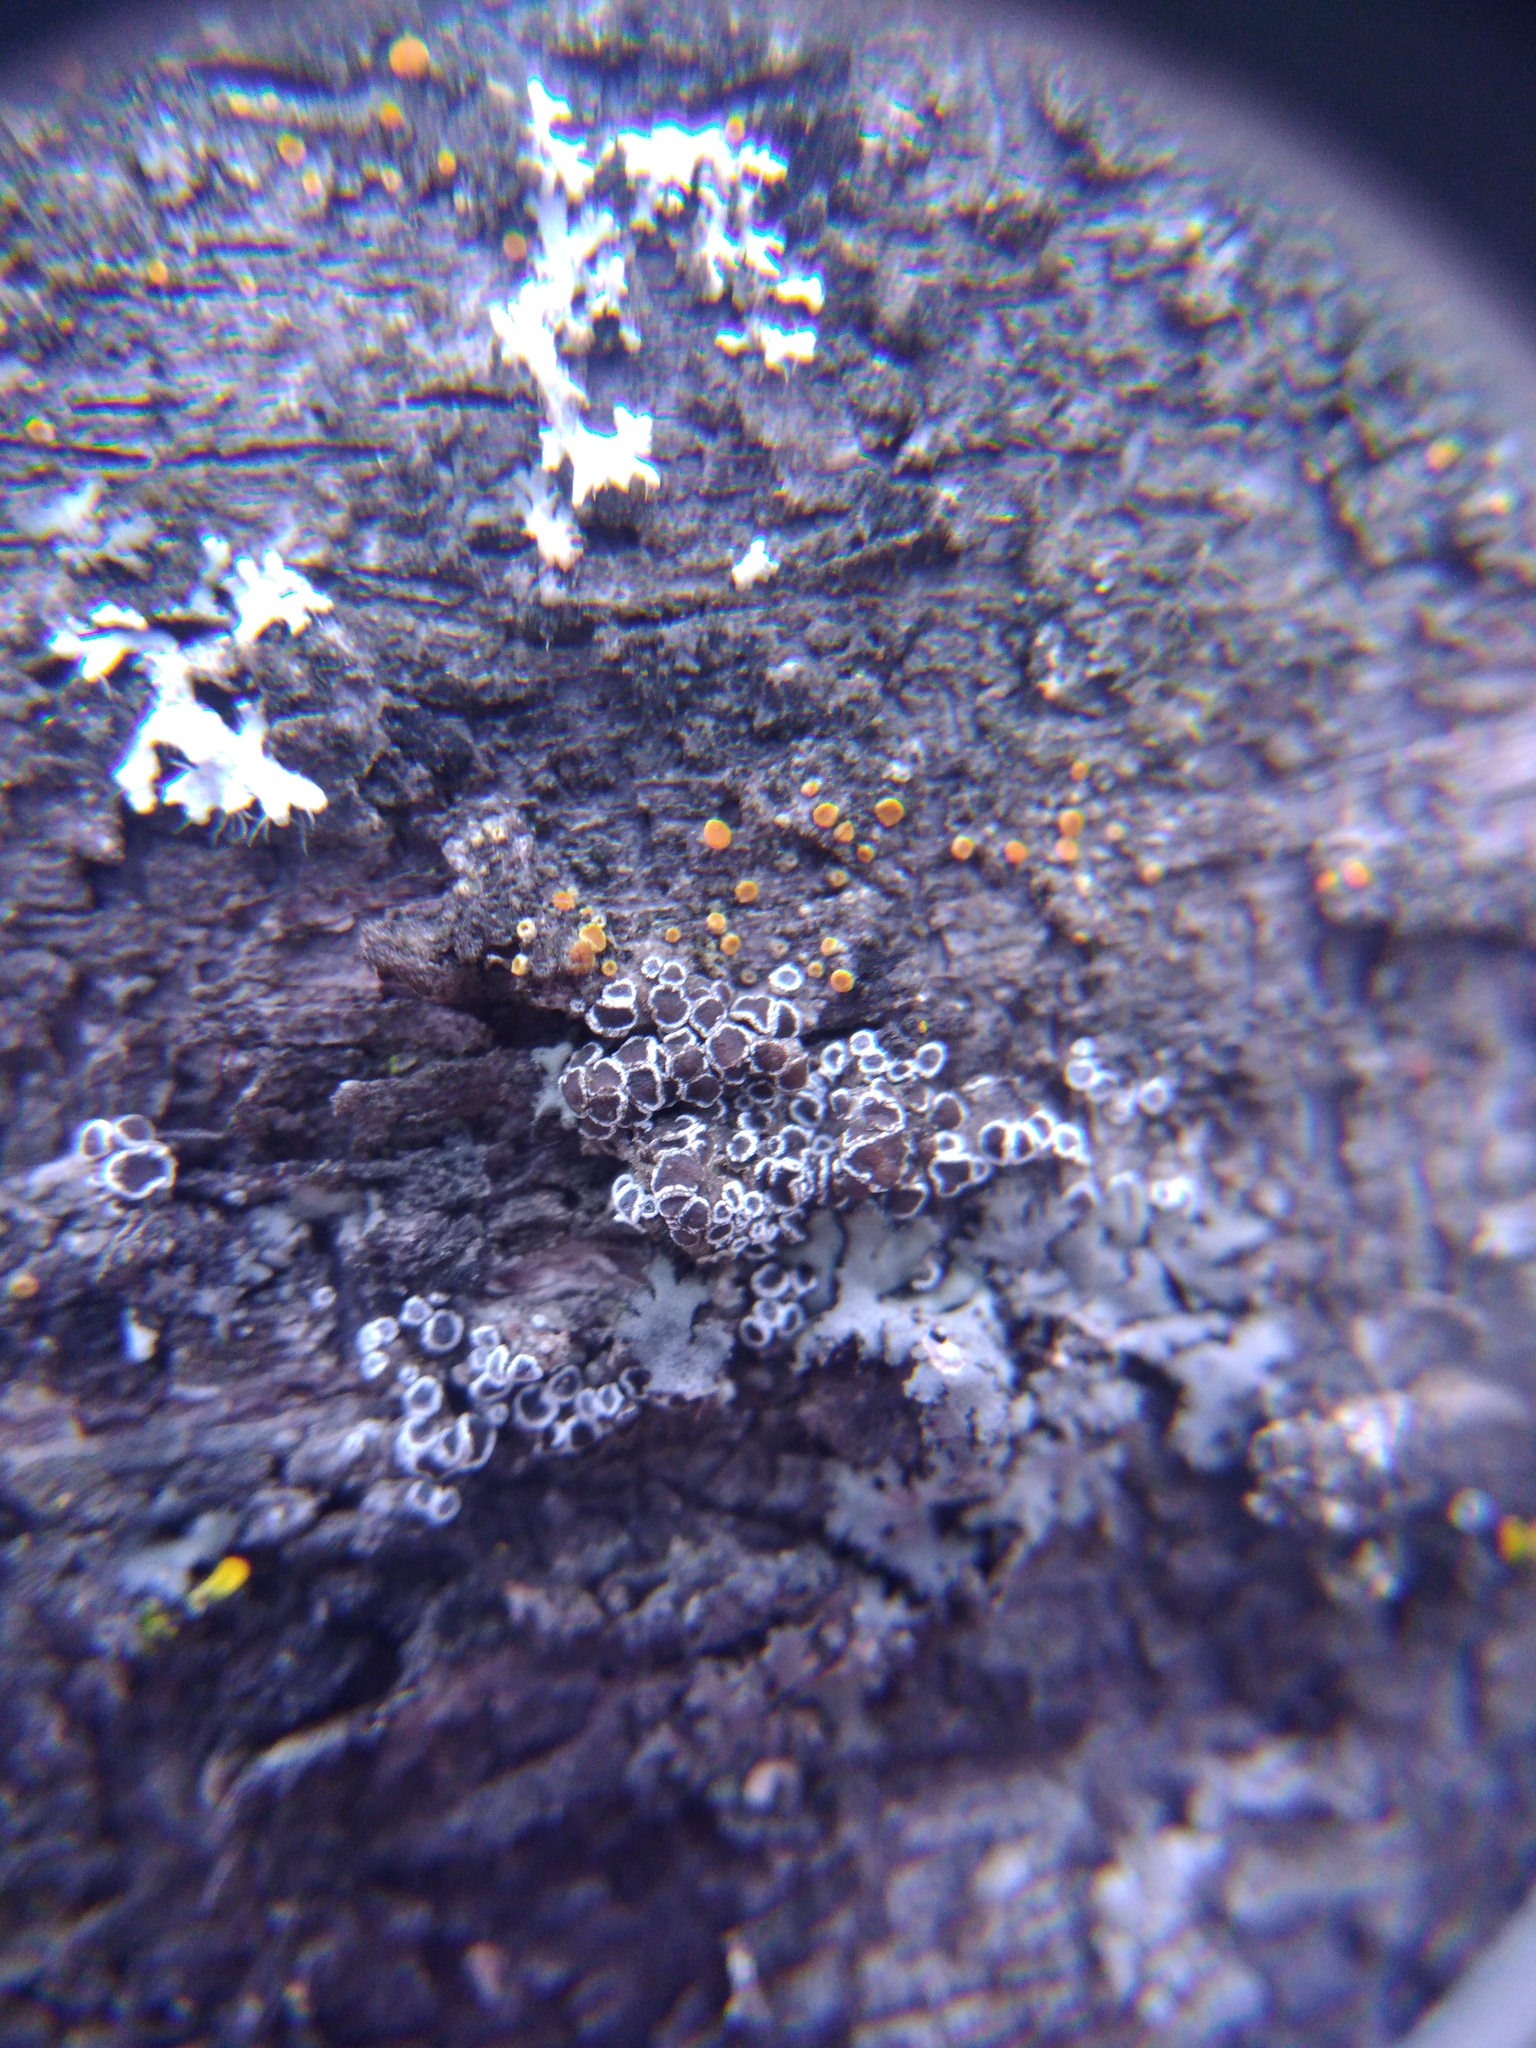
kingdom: Fungi
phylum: Ascomycota
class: Lecanoromycetes
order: Lecanorales
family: Lecanoraceae
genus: Polyozosia
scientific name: Polyozosia hagenii
